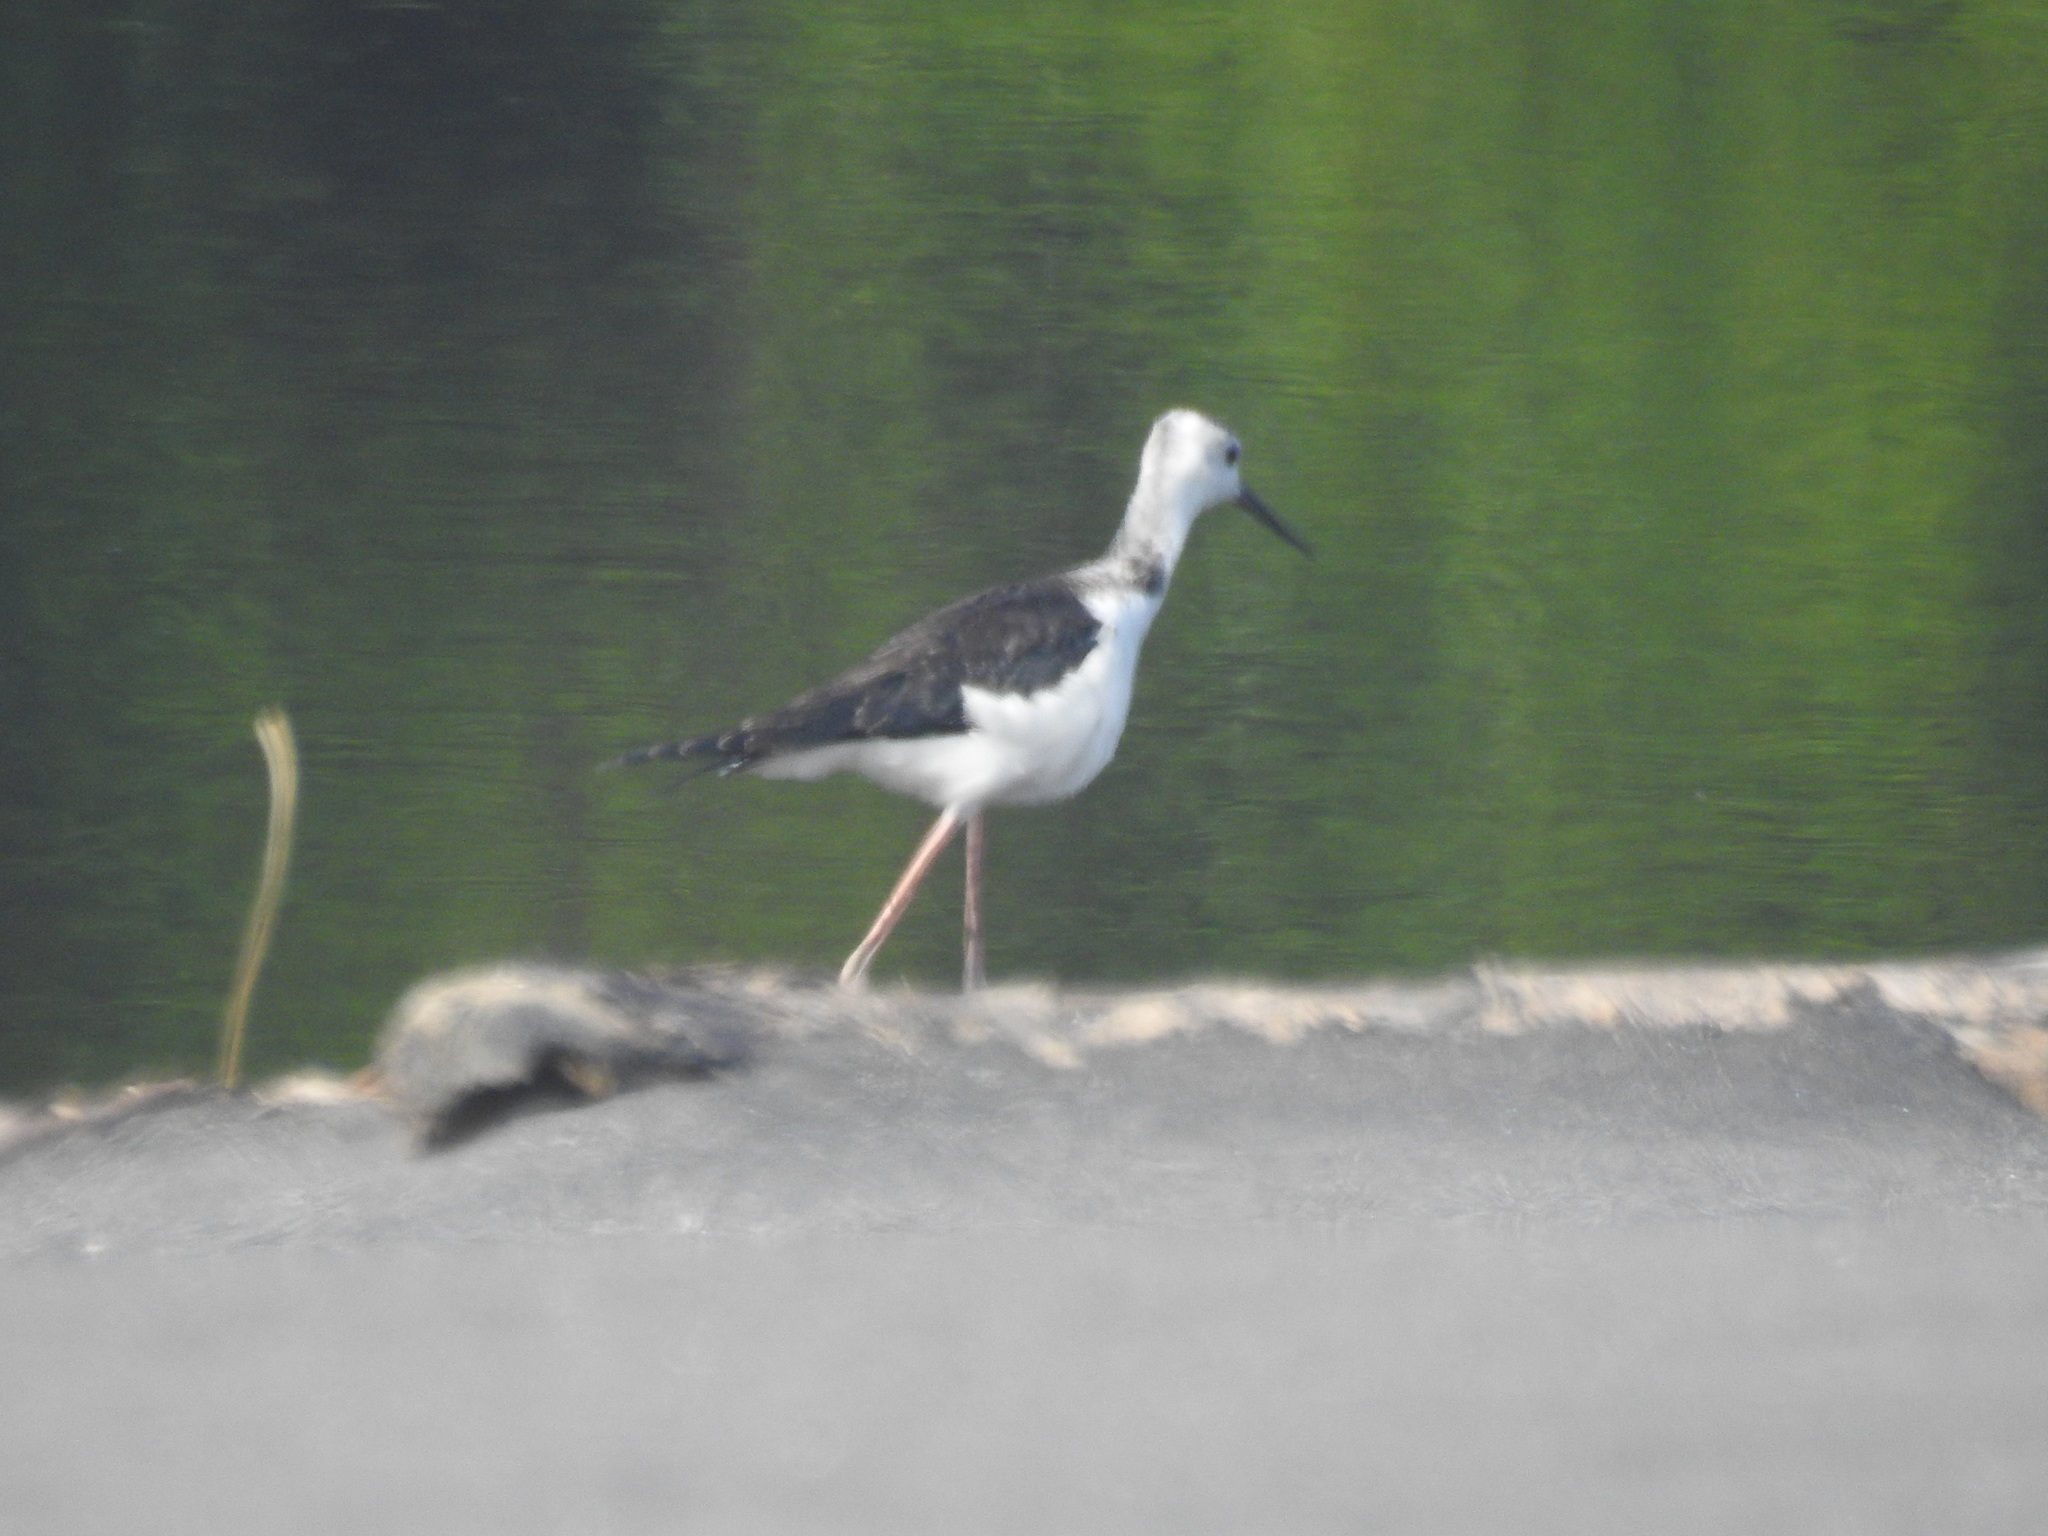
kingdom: Animalia
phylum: Chordata
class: Aves
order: Charadriiformes
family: Recurvirostridae
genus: Himantopus
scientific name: Himantopus leucocephalus
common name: White-headed stilt
